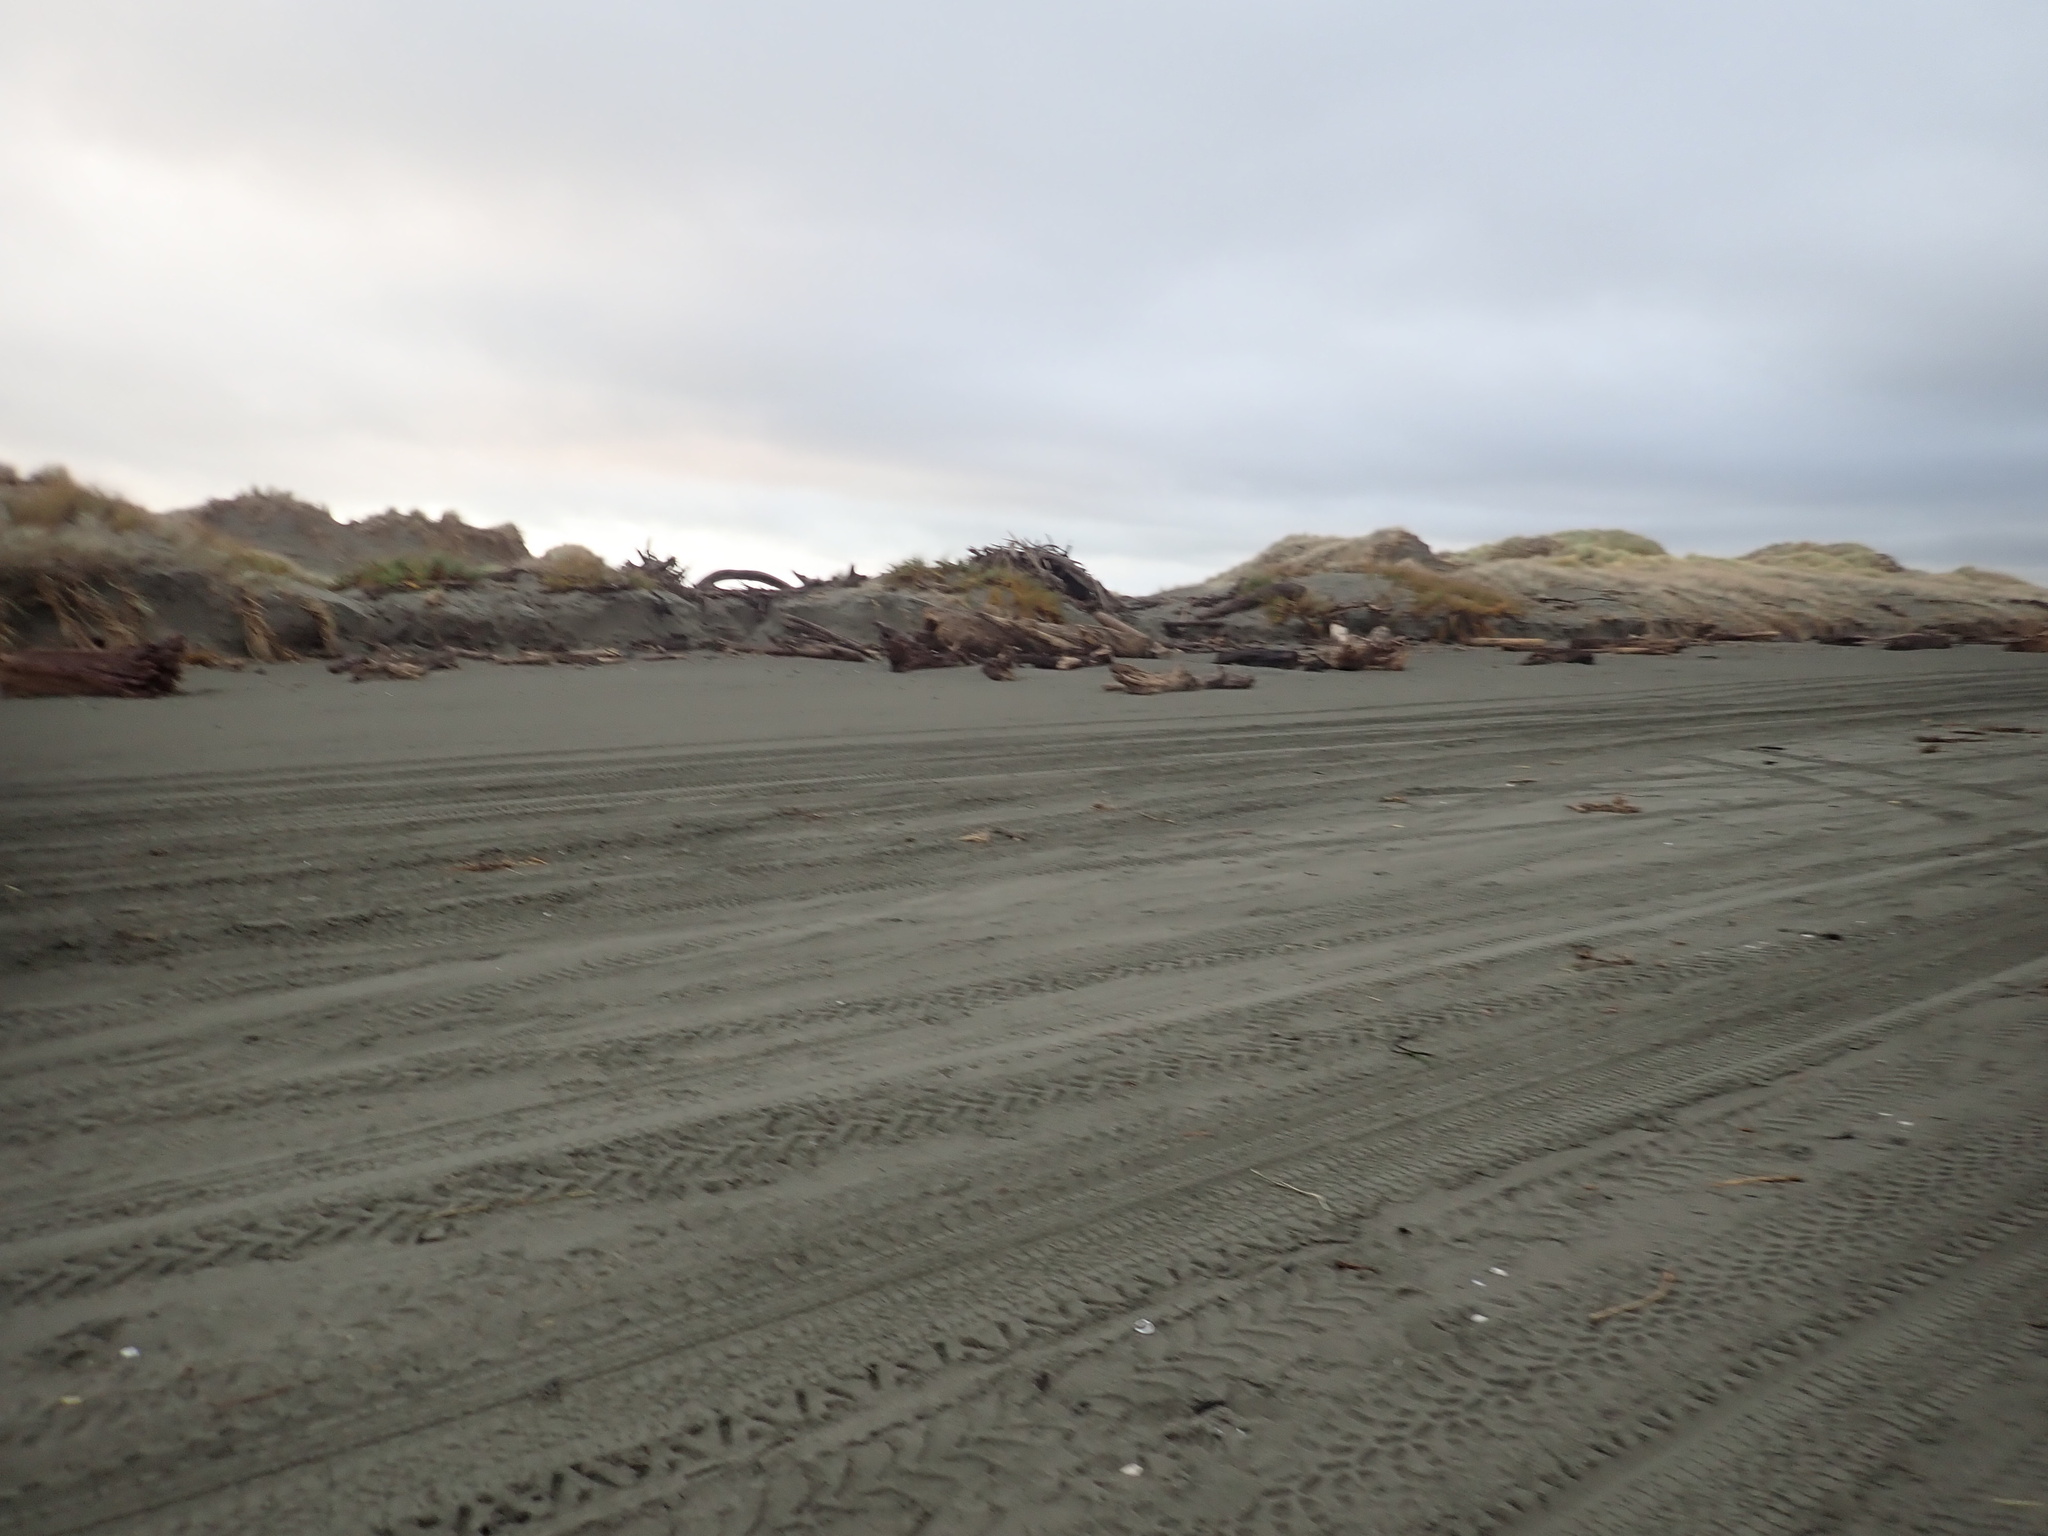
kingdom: Plantae
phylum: Tracheophyta
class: Liliopsida
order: Poales
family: Cyperaceae
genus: Ficinia
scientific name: Ficinia spiralis
